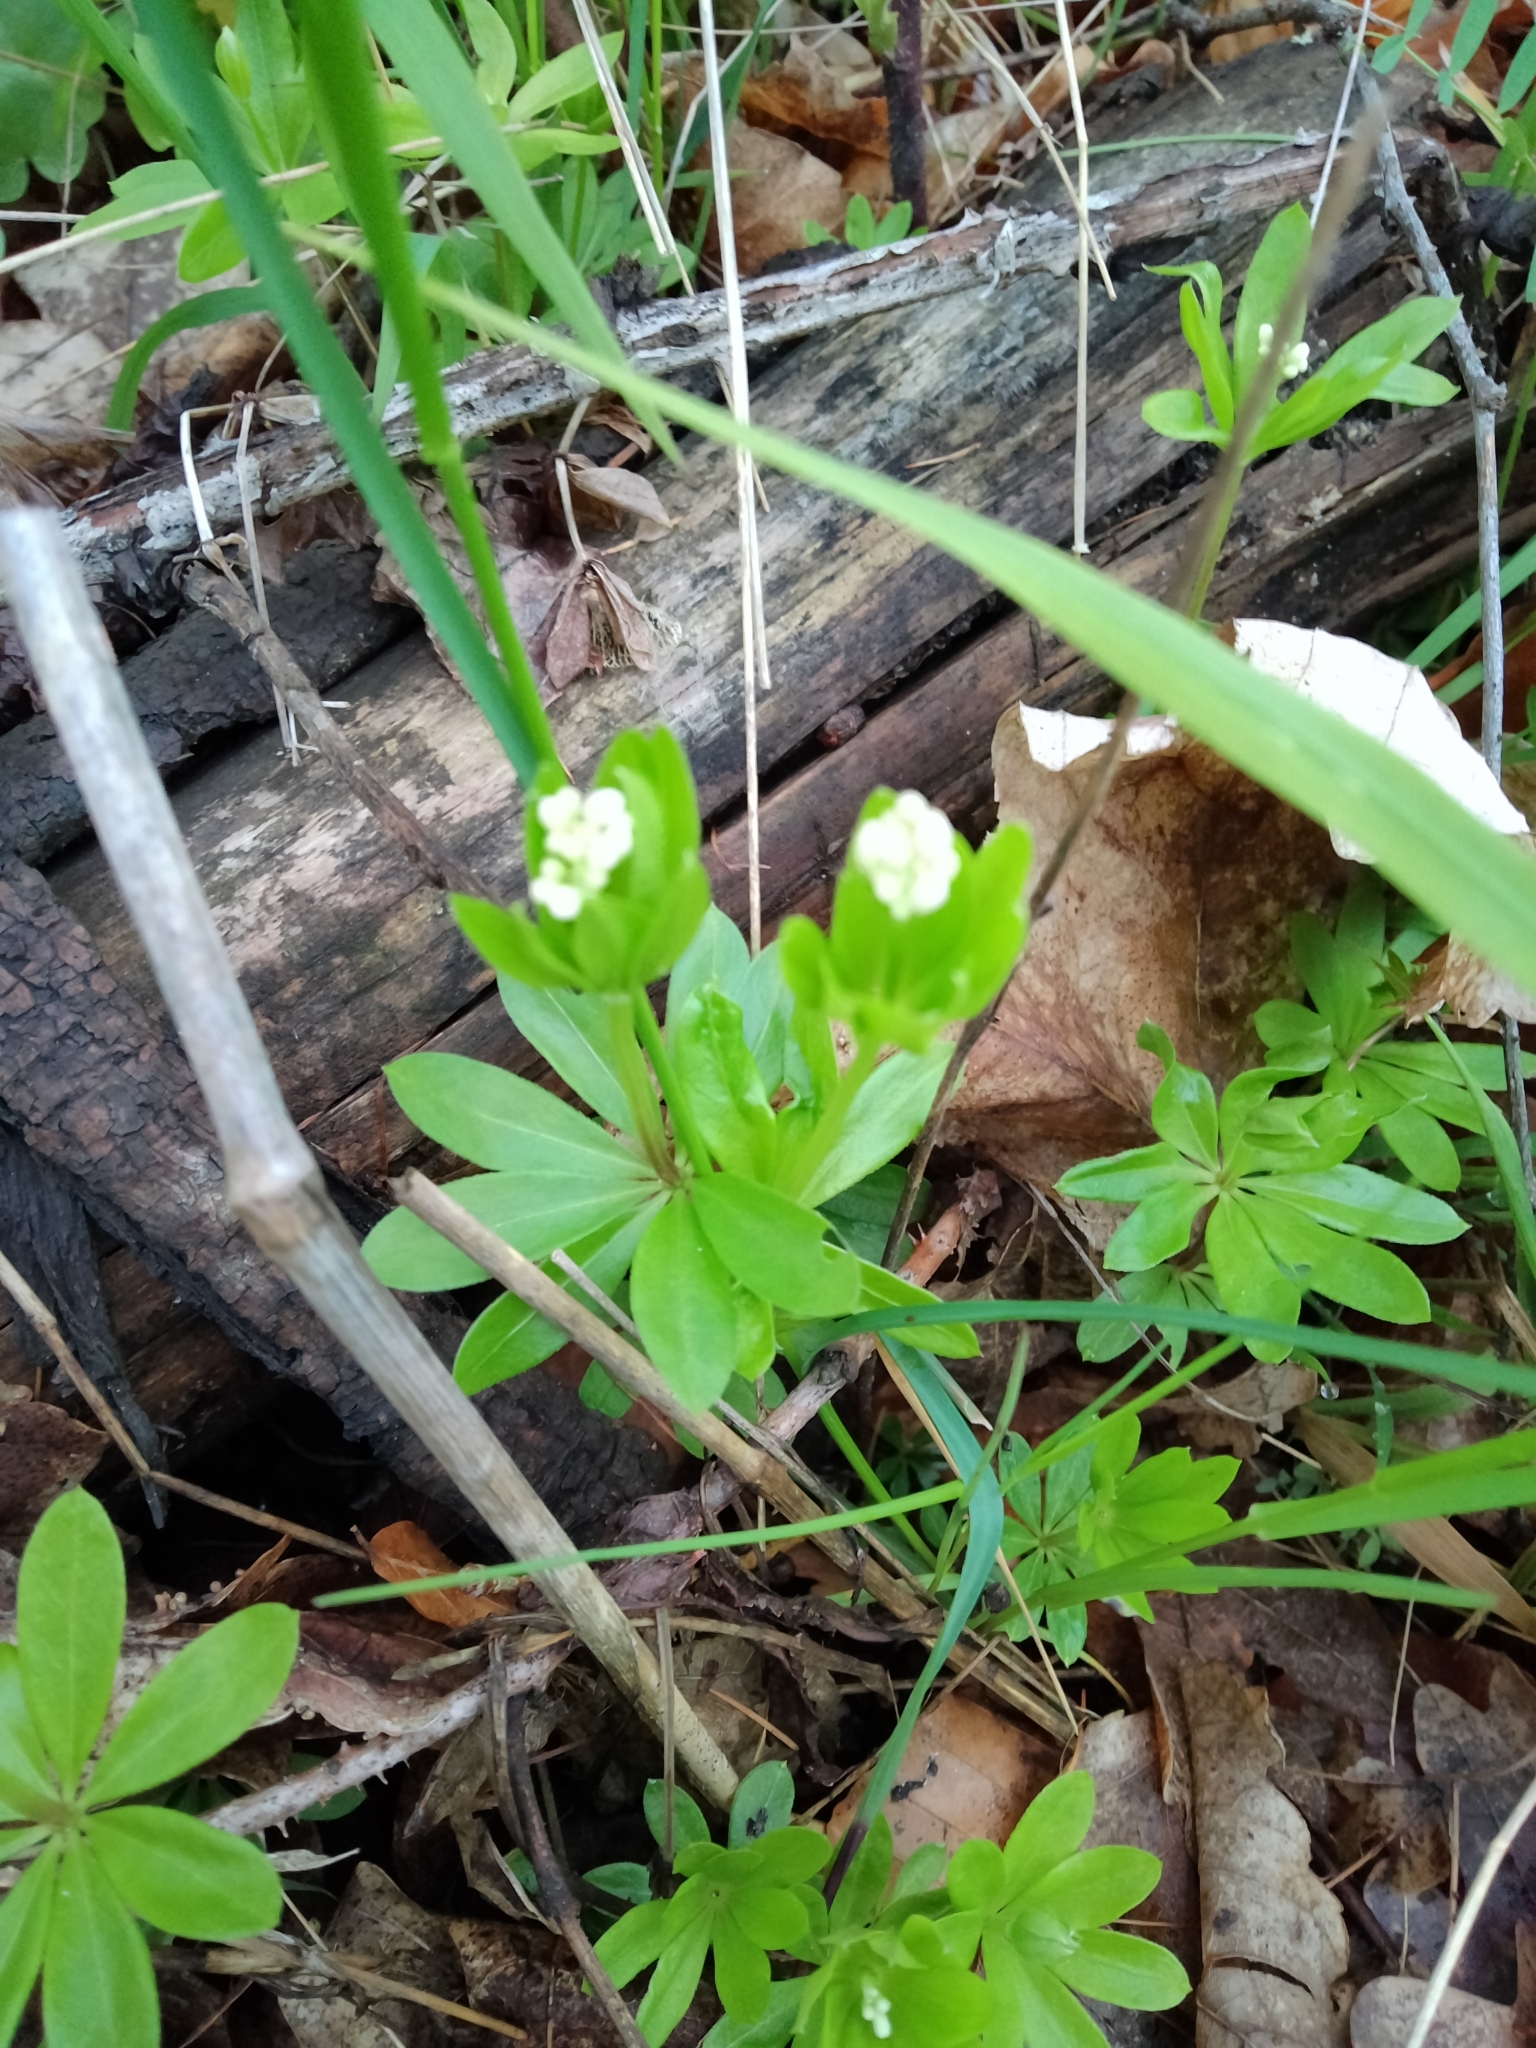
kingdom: Plantae
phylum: Tracheophyta
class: Magnoliopsida
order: Gentianales
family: Rubiaceae
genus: Galium
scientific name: Galium odoratum
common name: Sweet woodruff
